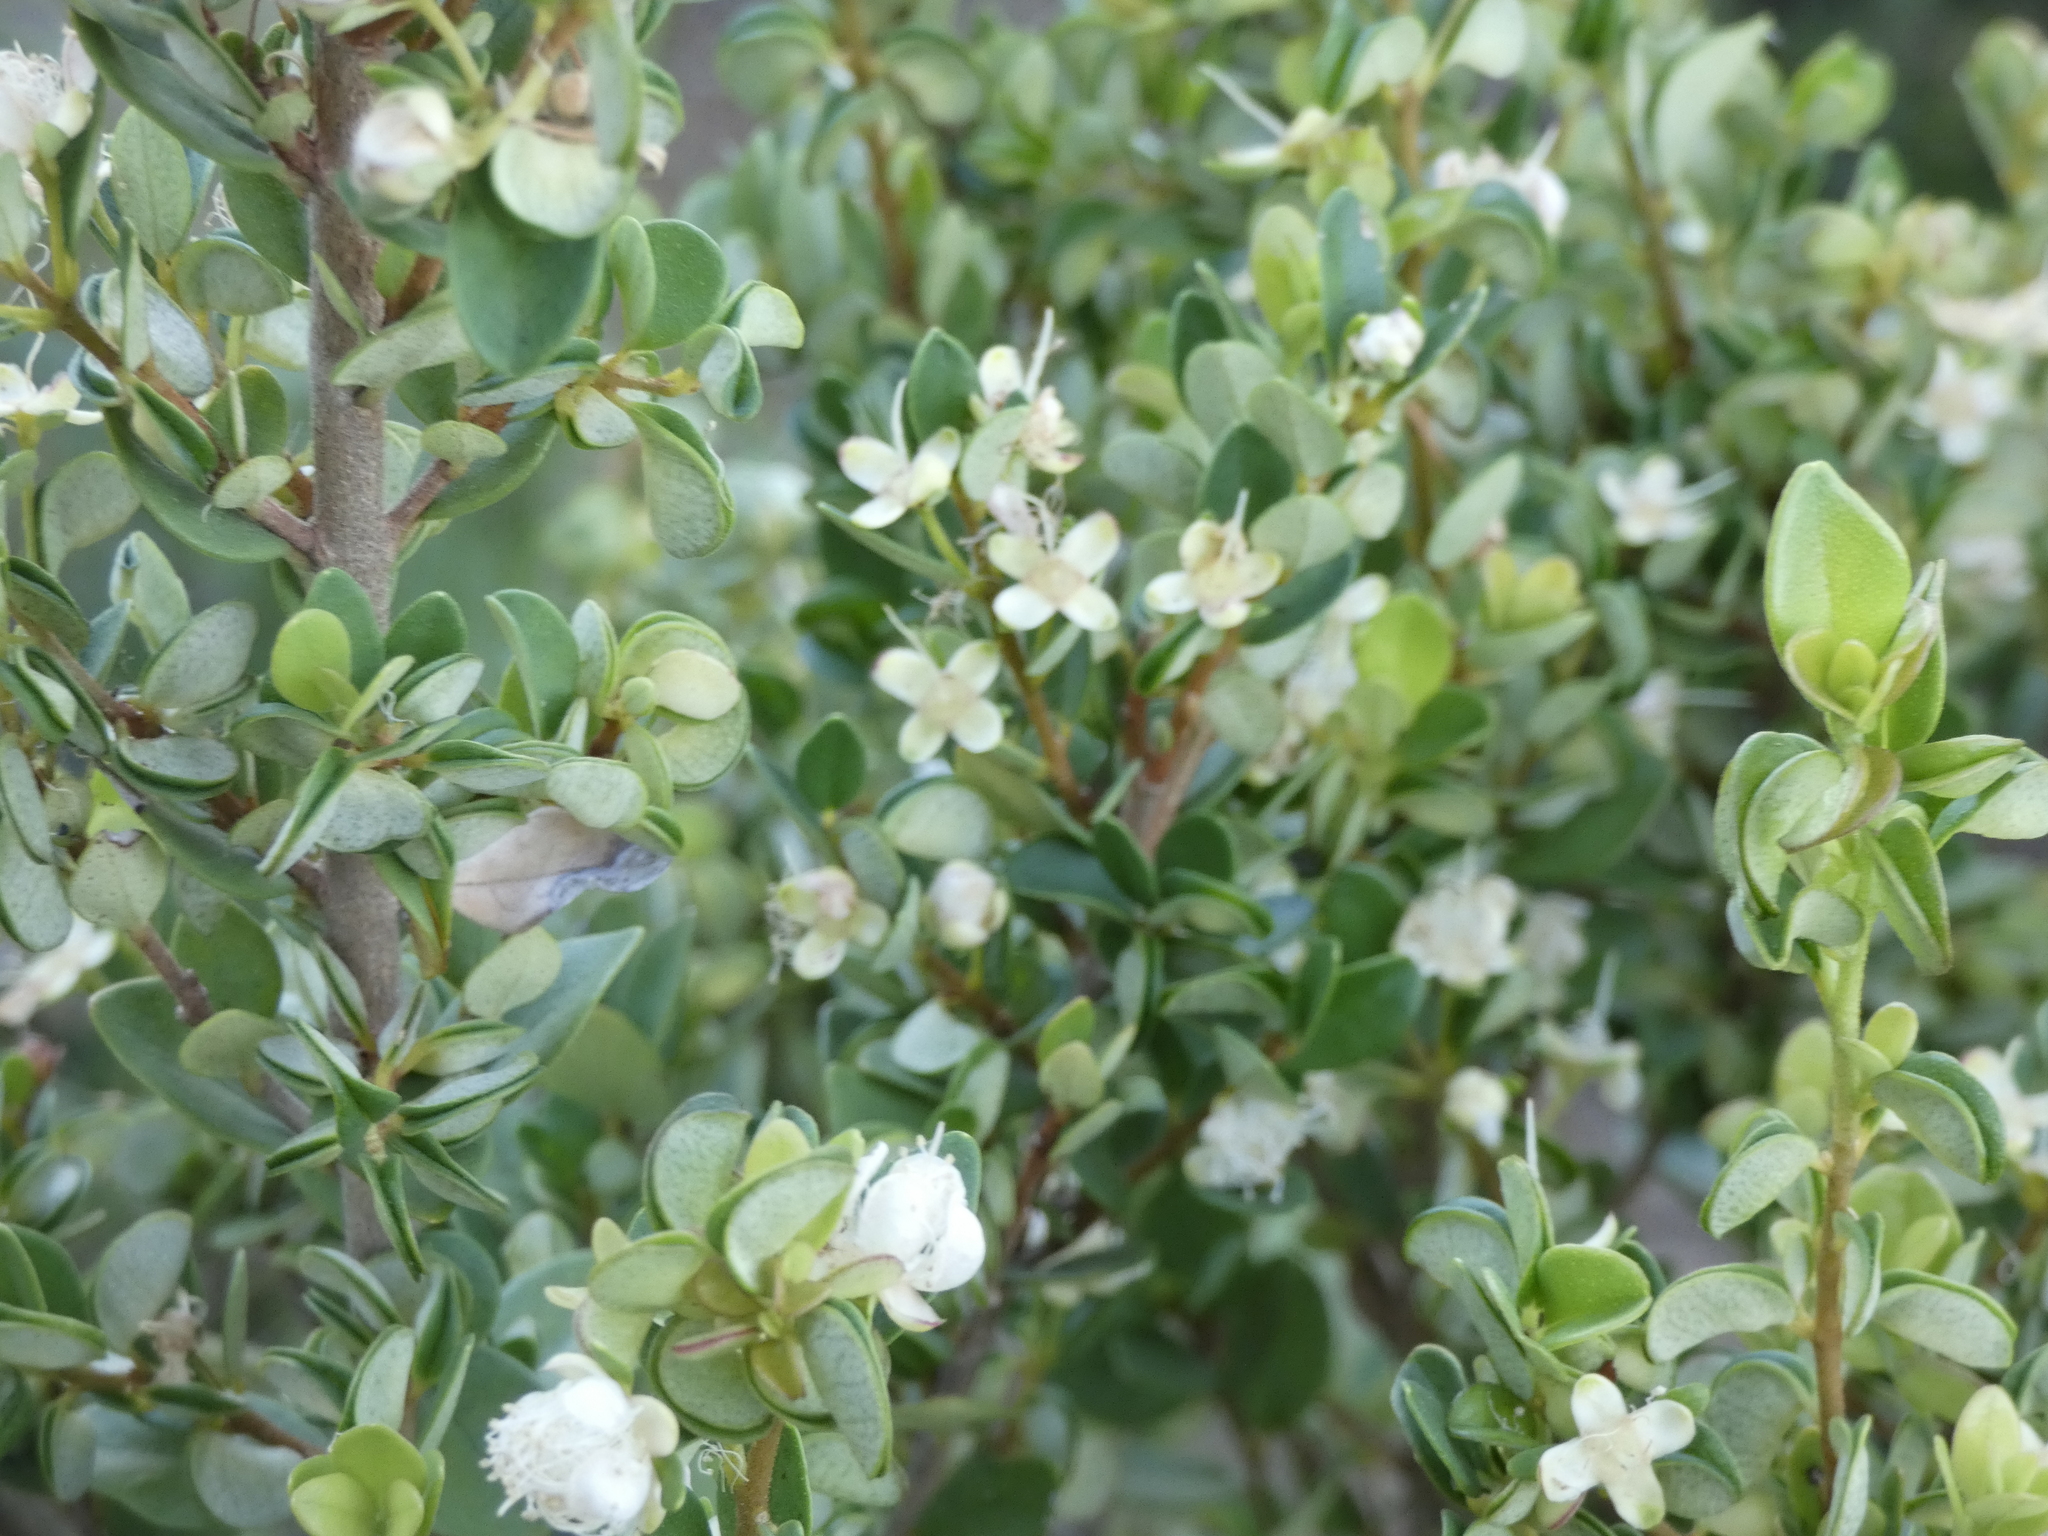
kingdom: Plantae
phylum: Tracheophyta
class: Magnoliopsida
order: Myrtales
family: Myrtaceae
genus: Myrceugenia
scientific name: Myrceugenia obtusa
